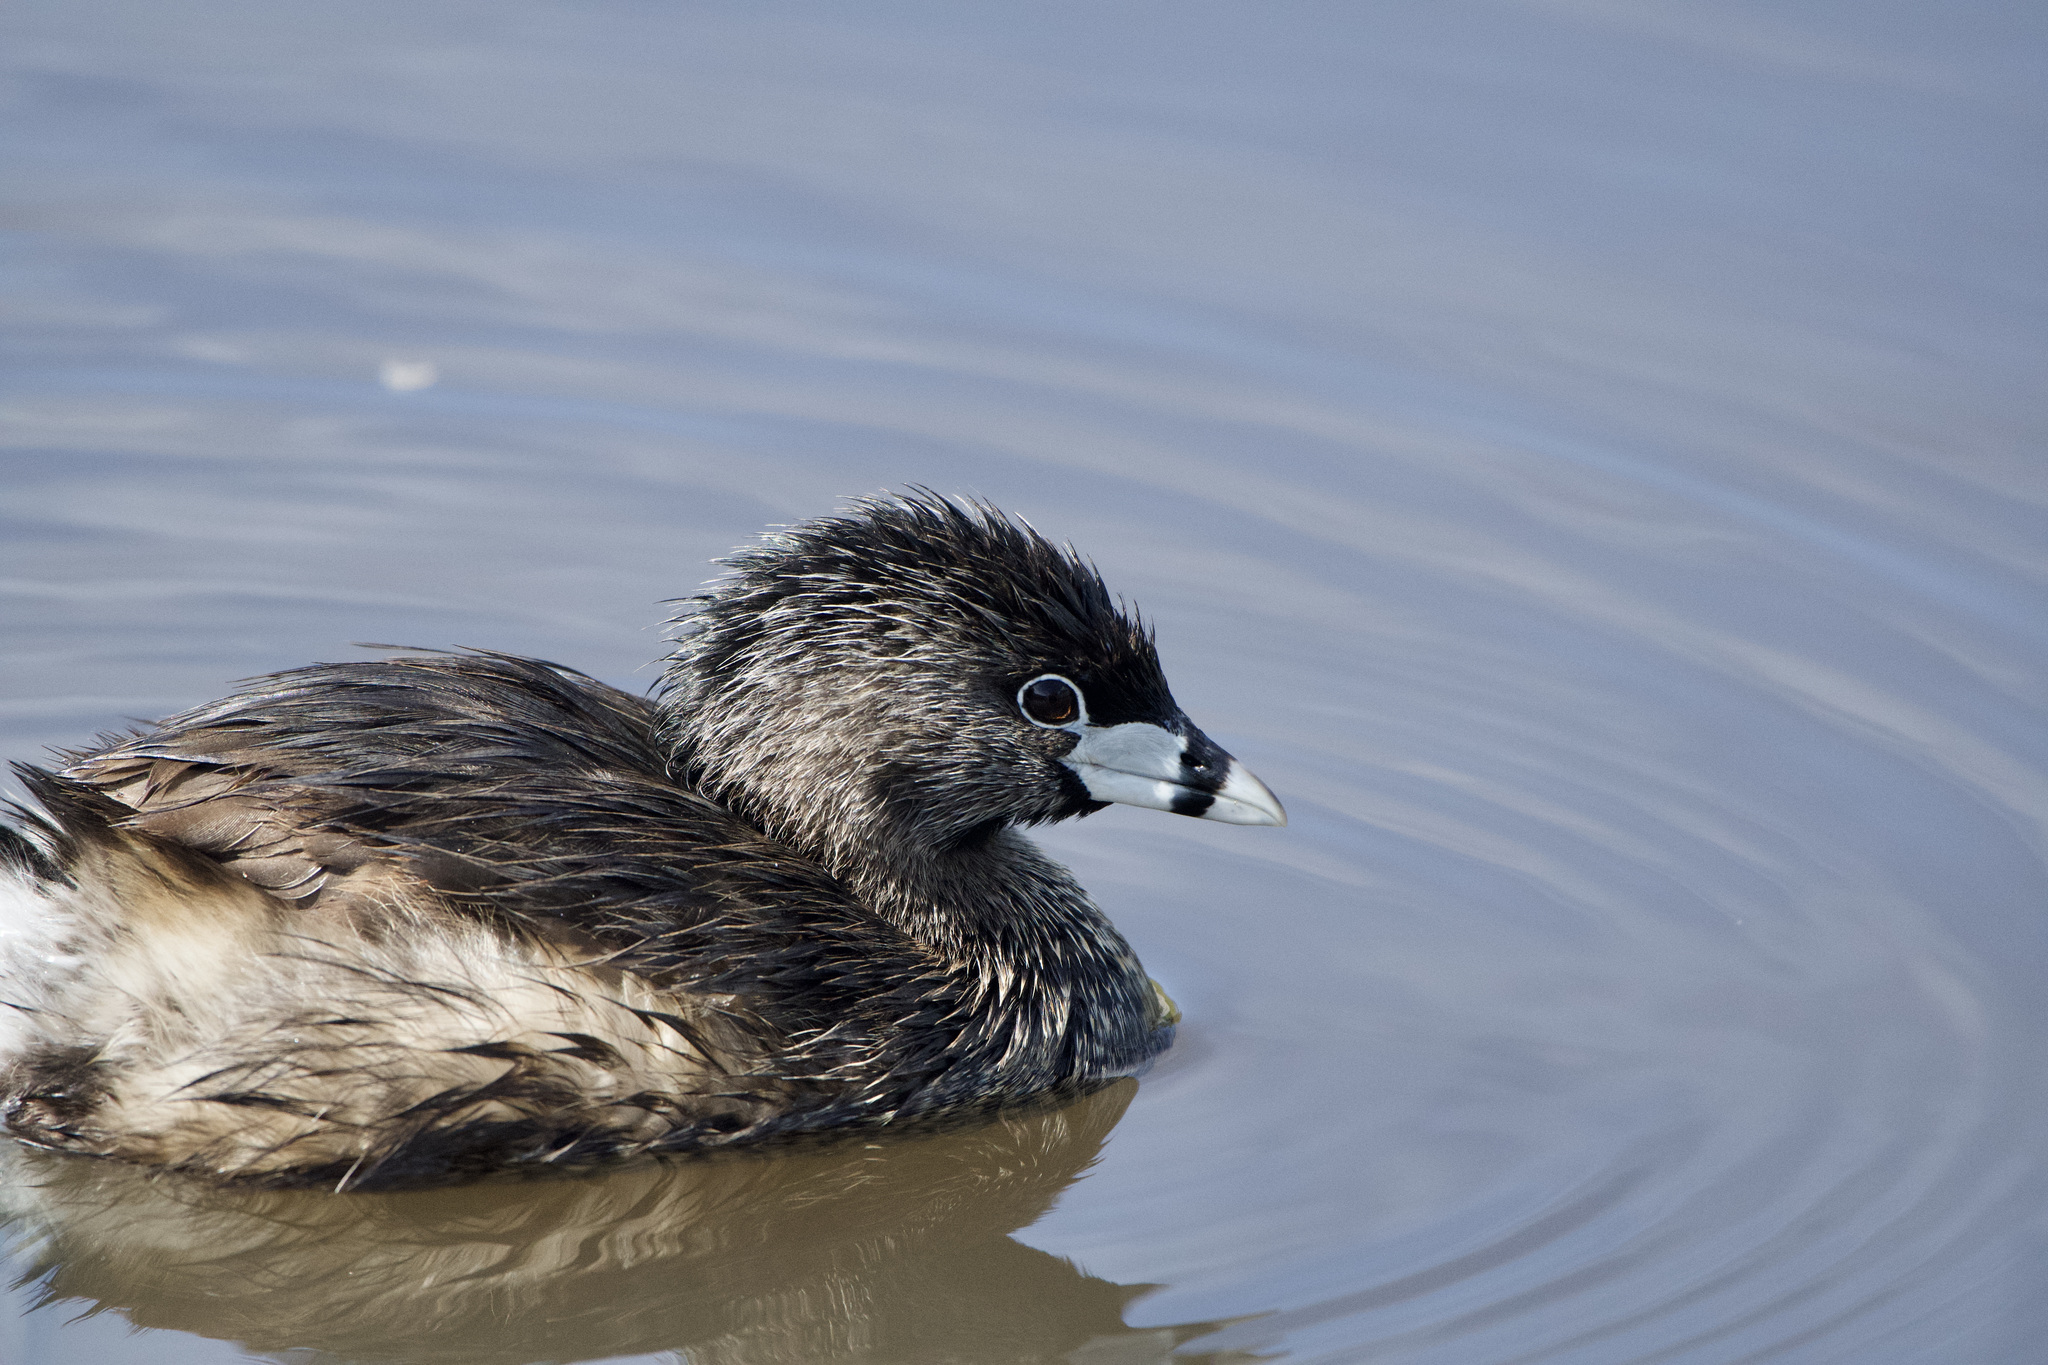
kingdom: Animalia
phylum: Chordata
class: Aves
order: Podicipediformes
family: Podicipedidae
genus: Podilymbus
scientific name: Podilymbus podiceps
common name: Pied-billed grebe
